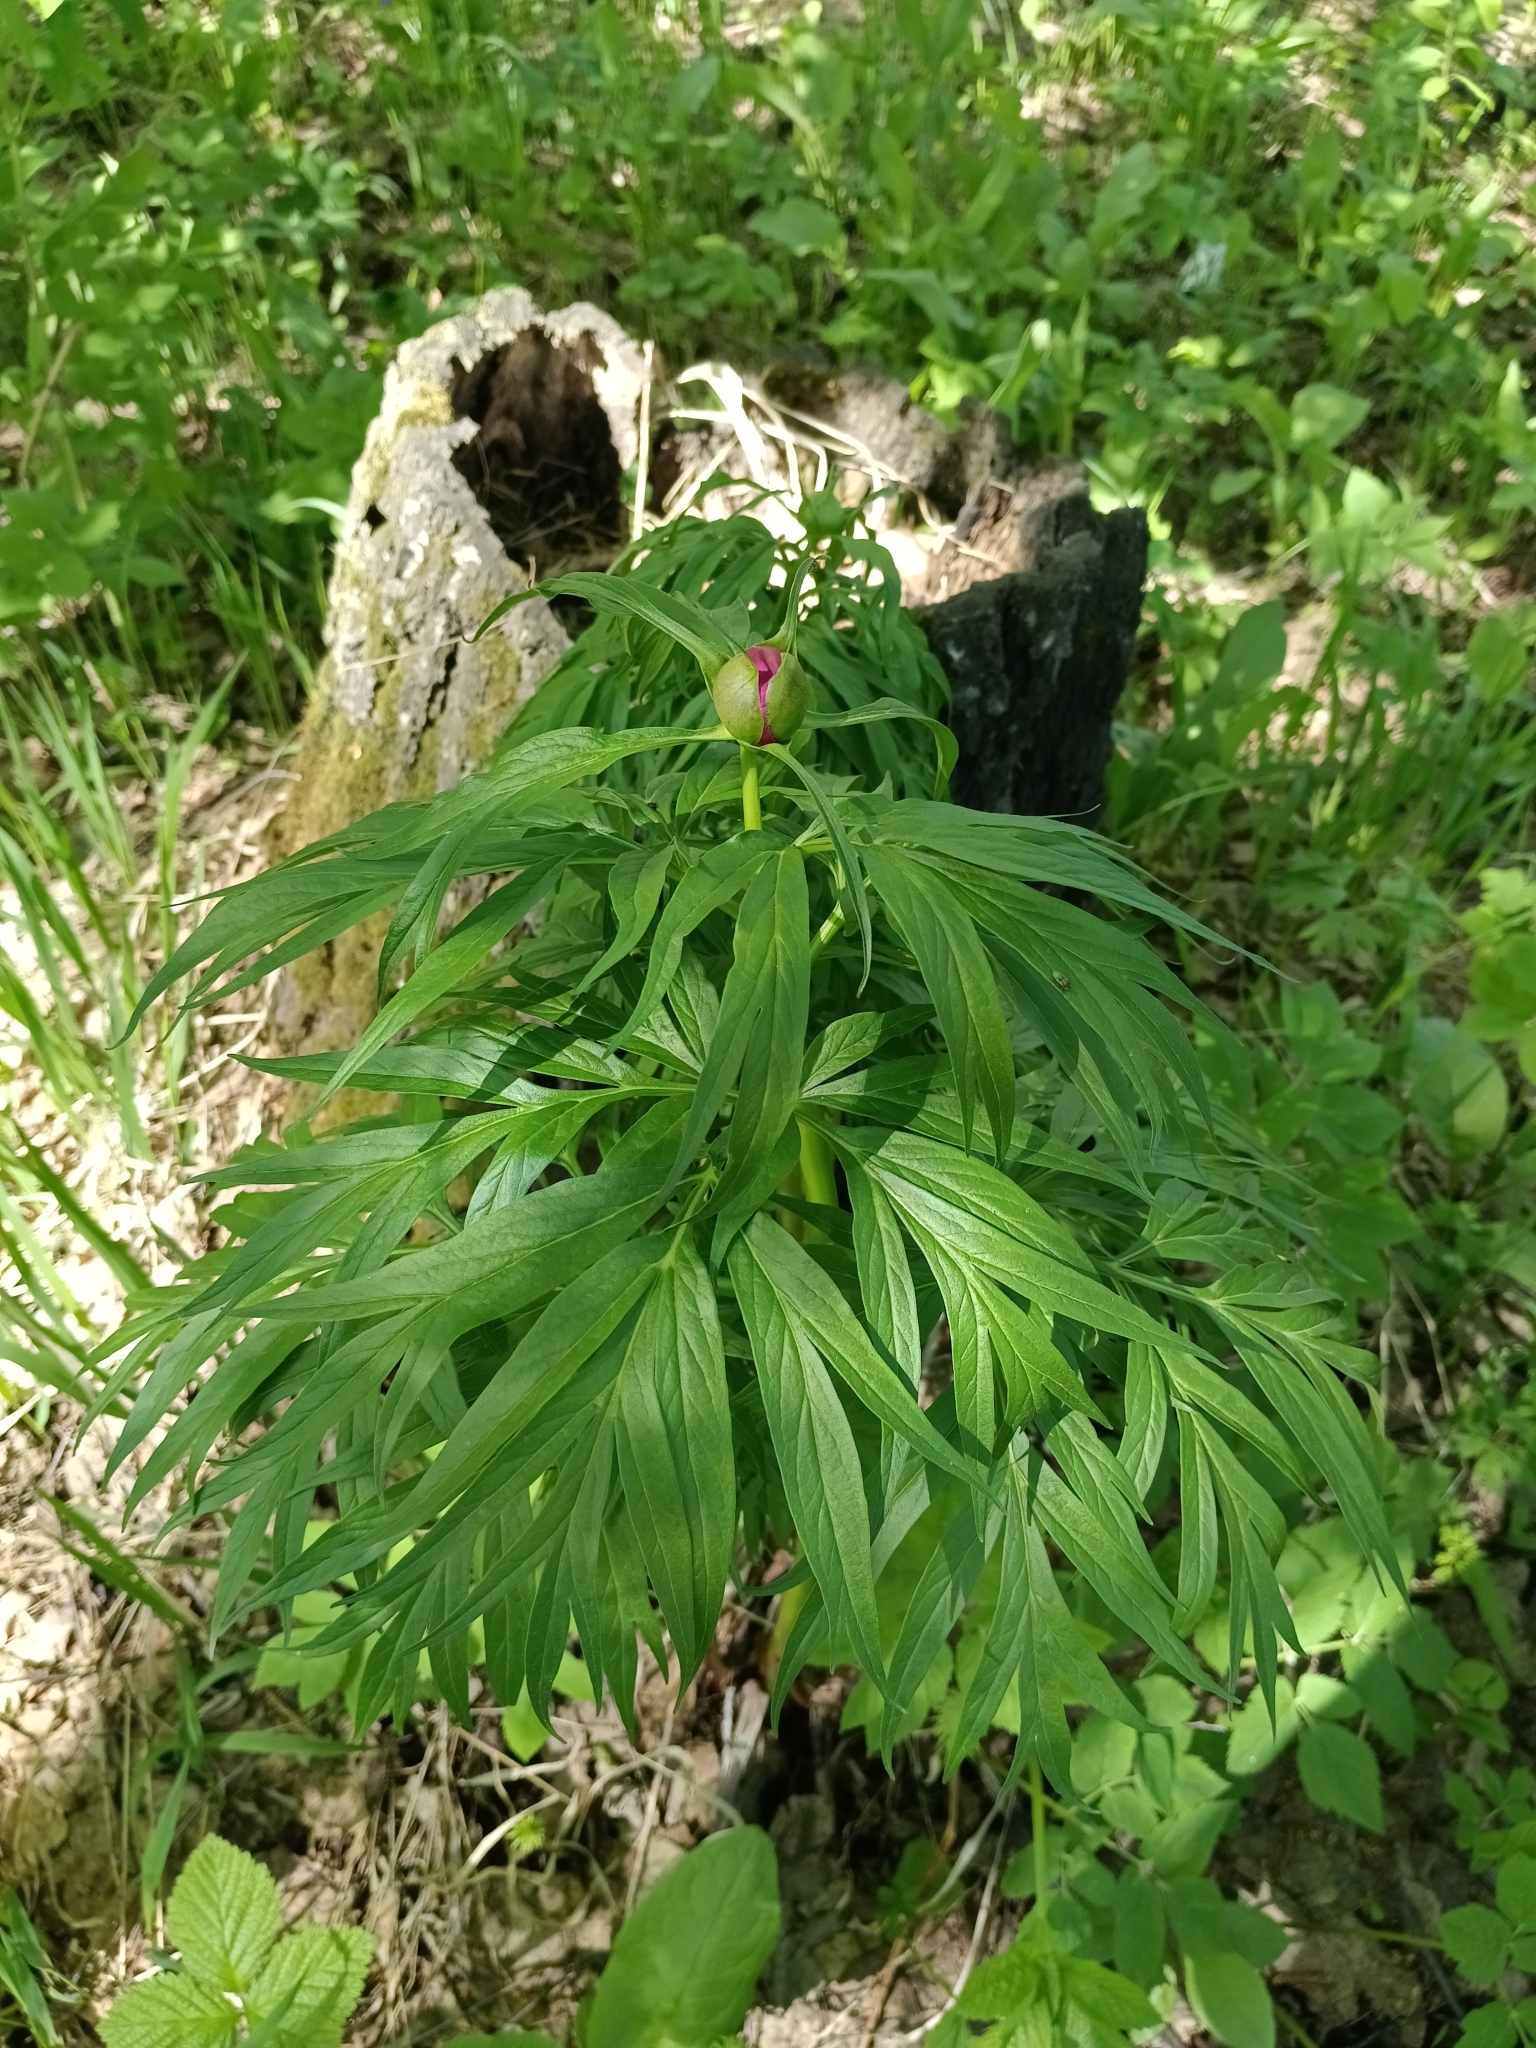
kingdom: Plantae
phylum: Tracheophyta
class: Magnoliopsida
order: Saxifragales
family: Paeoniaceae
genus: Paeonia
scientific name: Paeonia anomala
